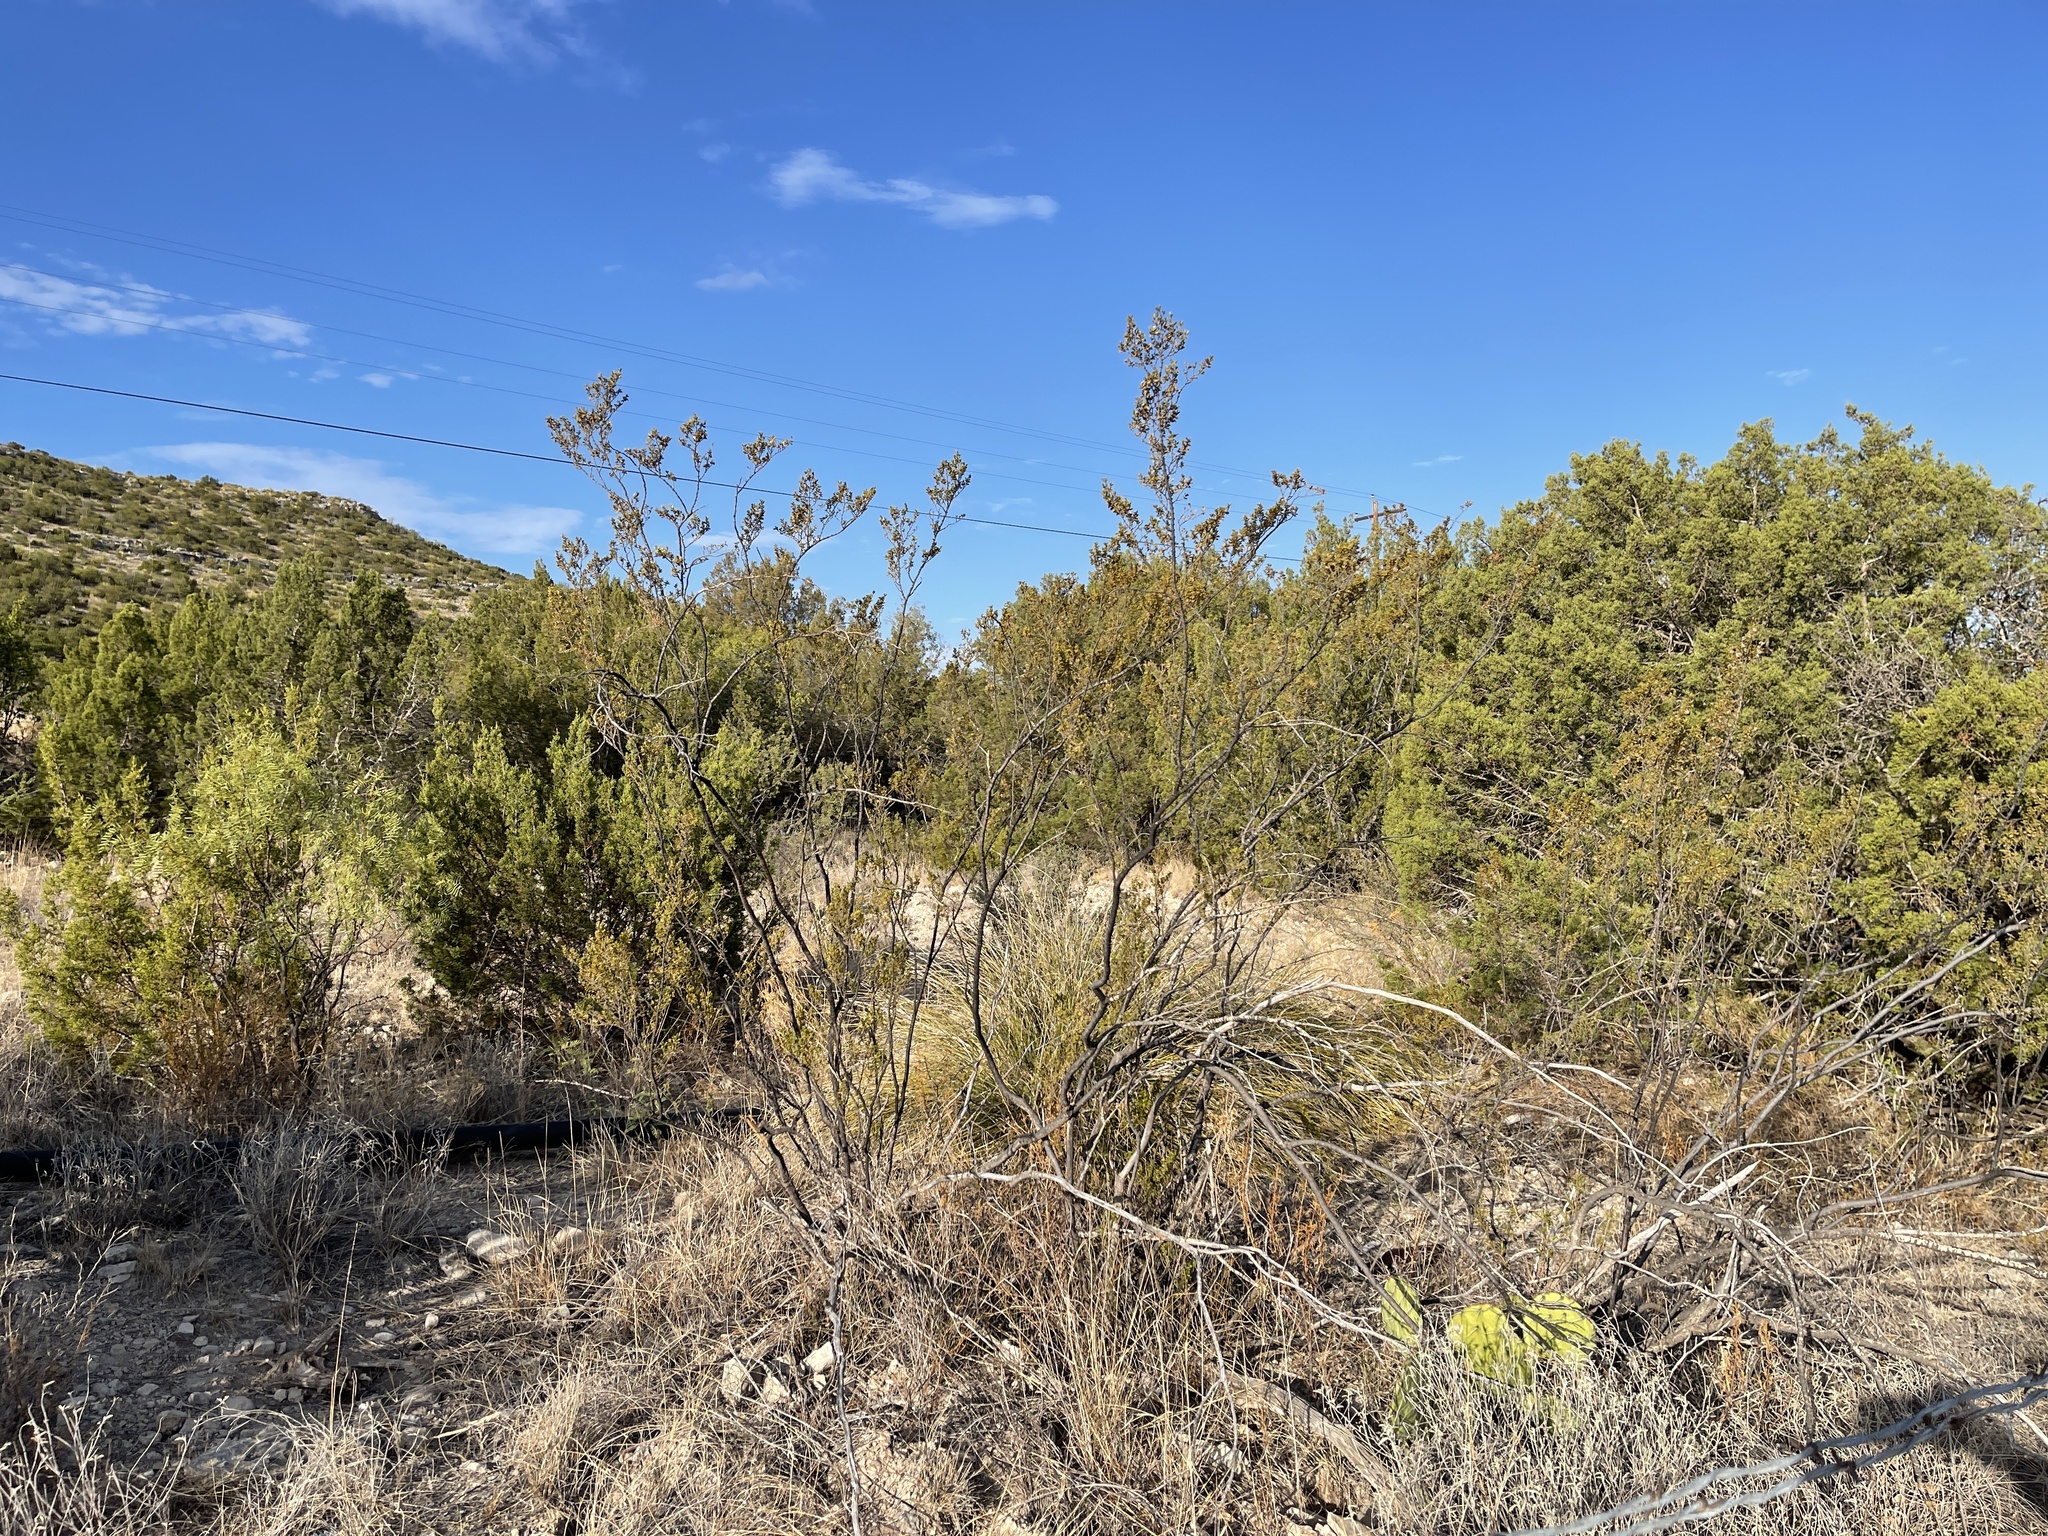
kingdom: Plantae
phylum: Tracheophyta
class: Magnoliopsida
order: Zygophyllales
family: Zygophyllaceae
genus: Larrea
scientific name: Larrea tridentata
